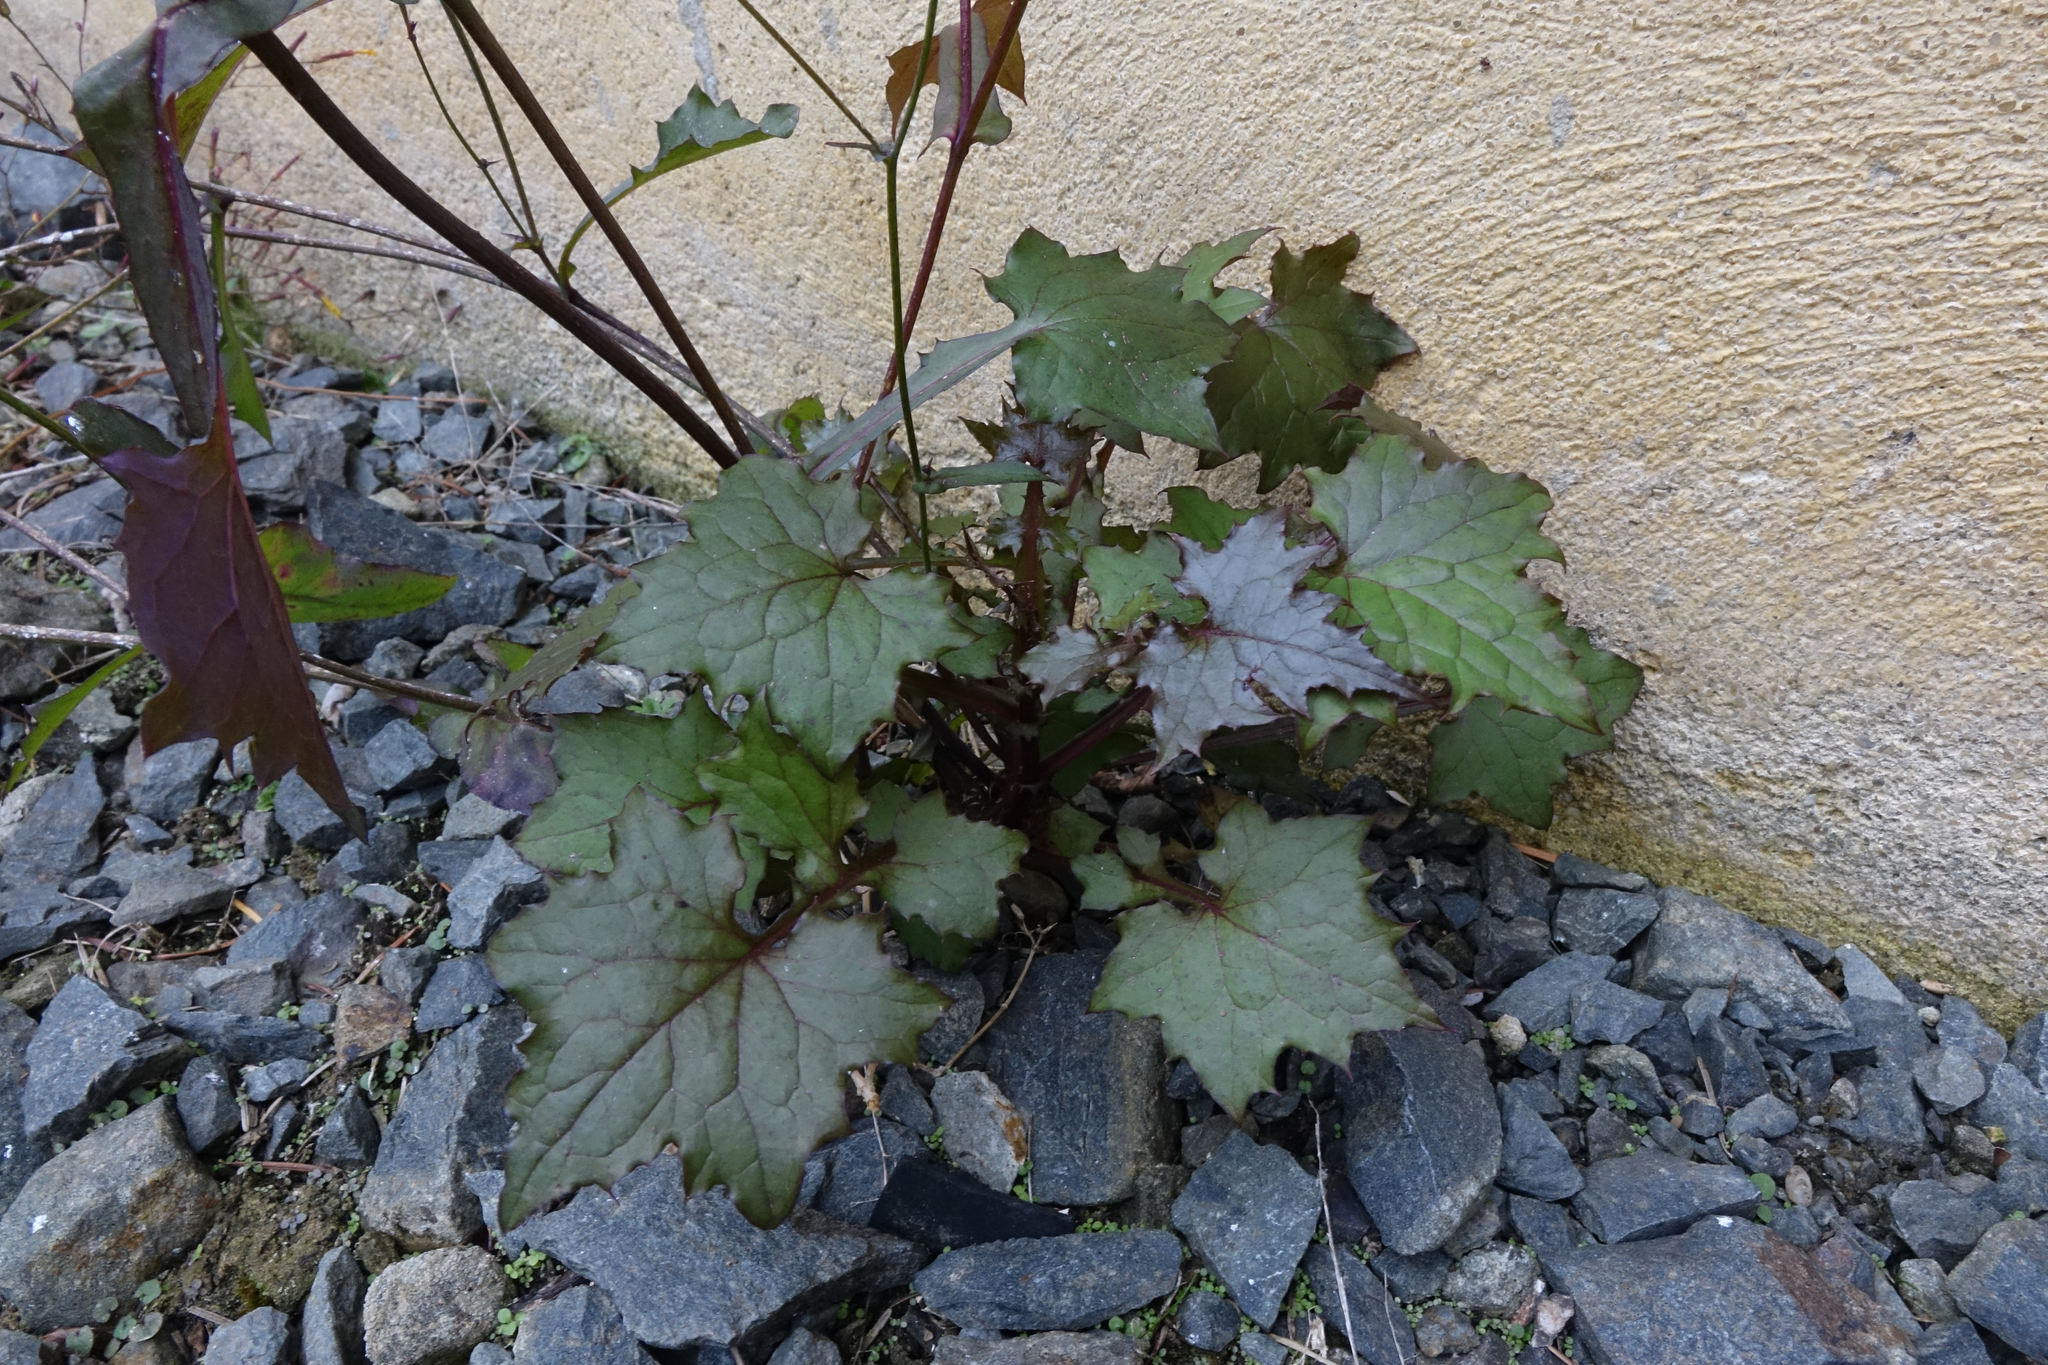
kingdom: Plantae
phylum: Tracheophyta
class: Magnoliopsida
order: Asterales
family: Asteraceae
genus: Mycelis
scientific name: Mycelis muralis
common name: Wall lettuce
